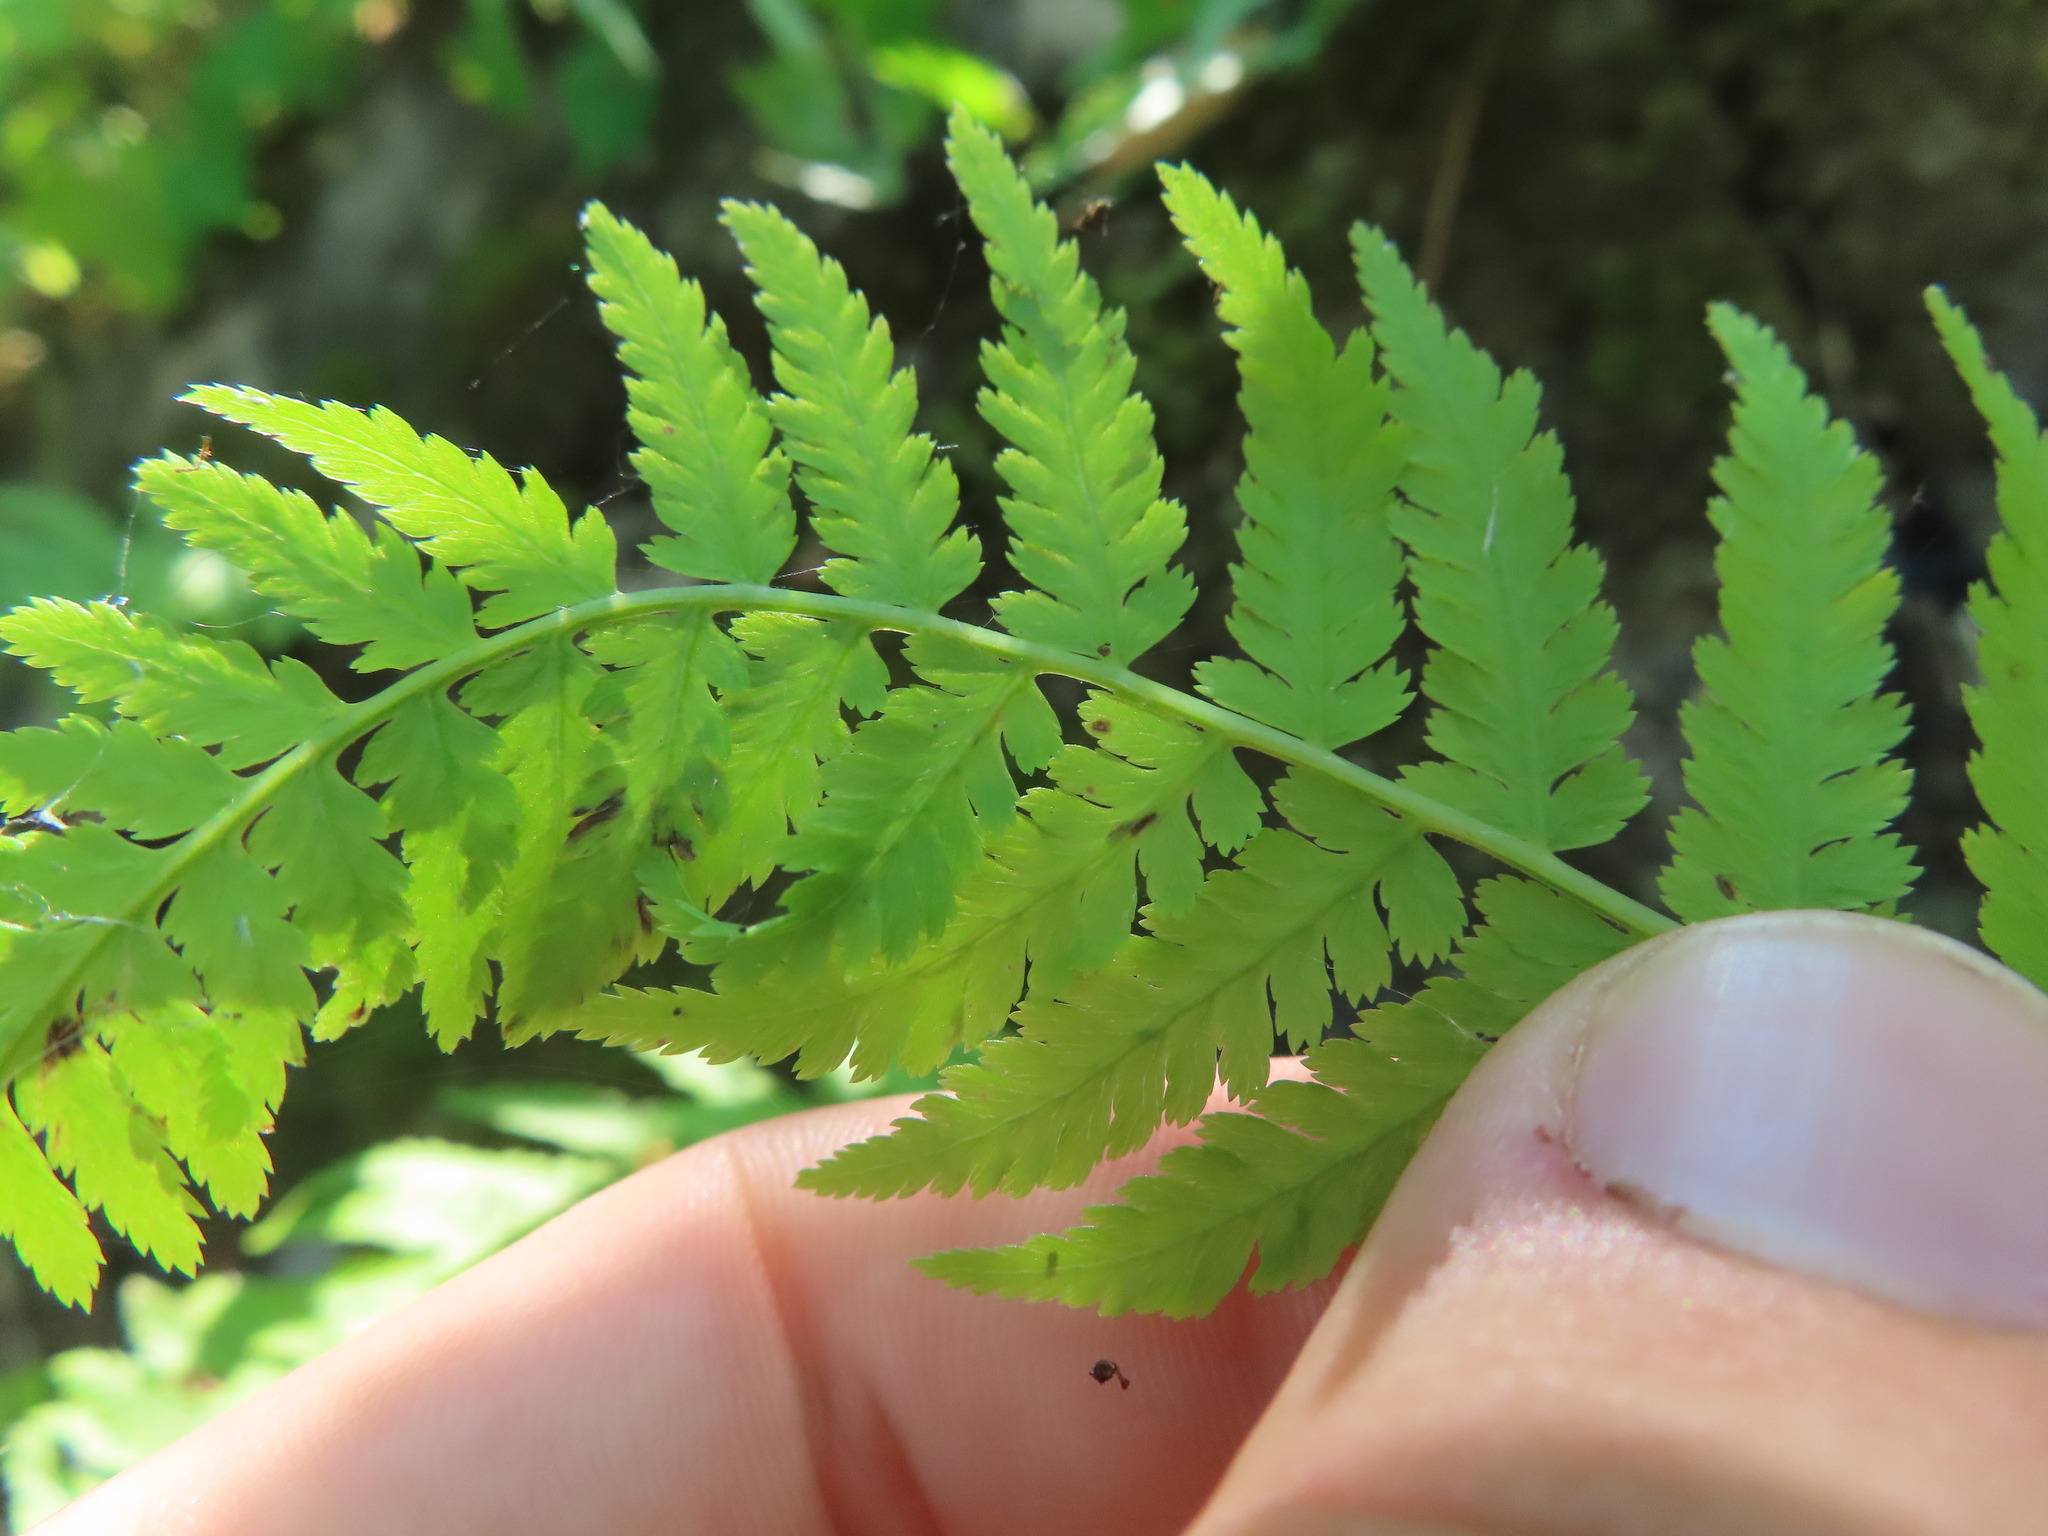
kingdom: Plantae
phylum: Tracheophyta
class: Polypodiopsida
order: Polypodiales
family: Athyriaceae
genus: Athyrium
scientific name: Athyrium angustum
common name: Northern lady fern
